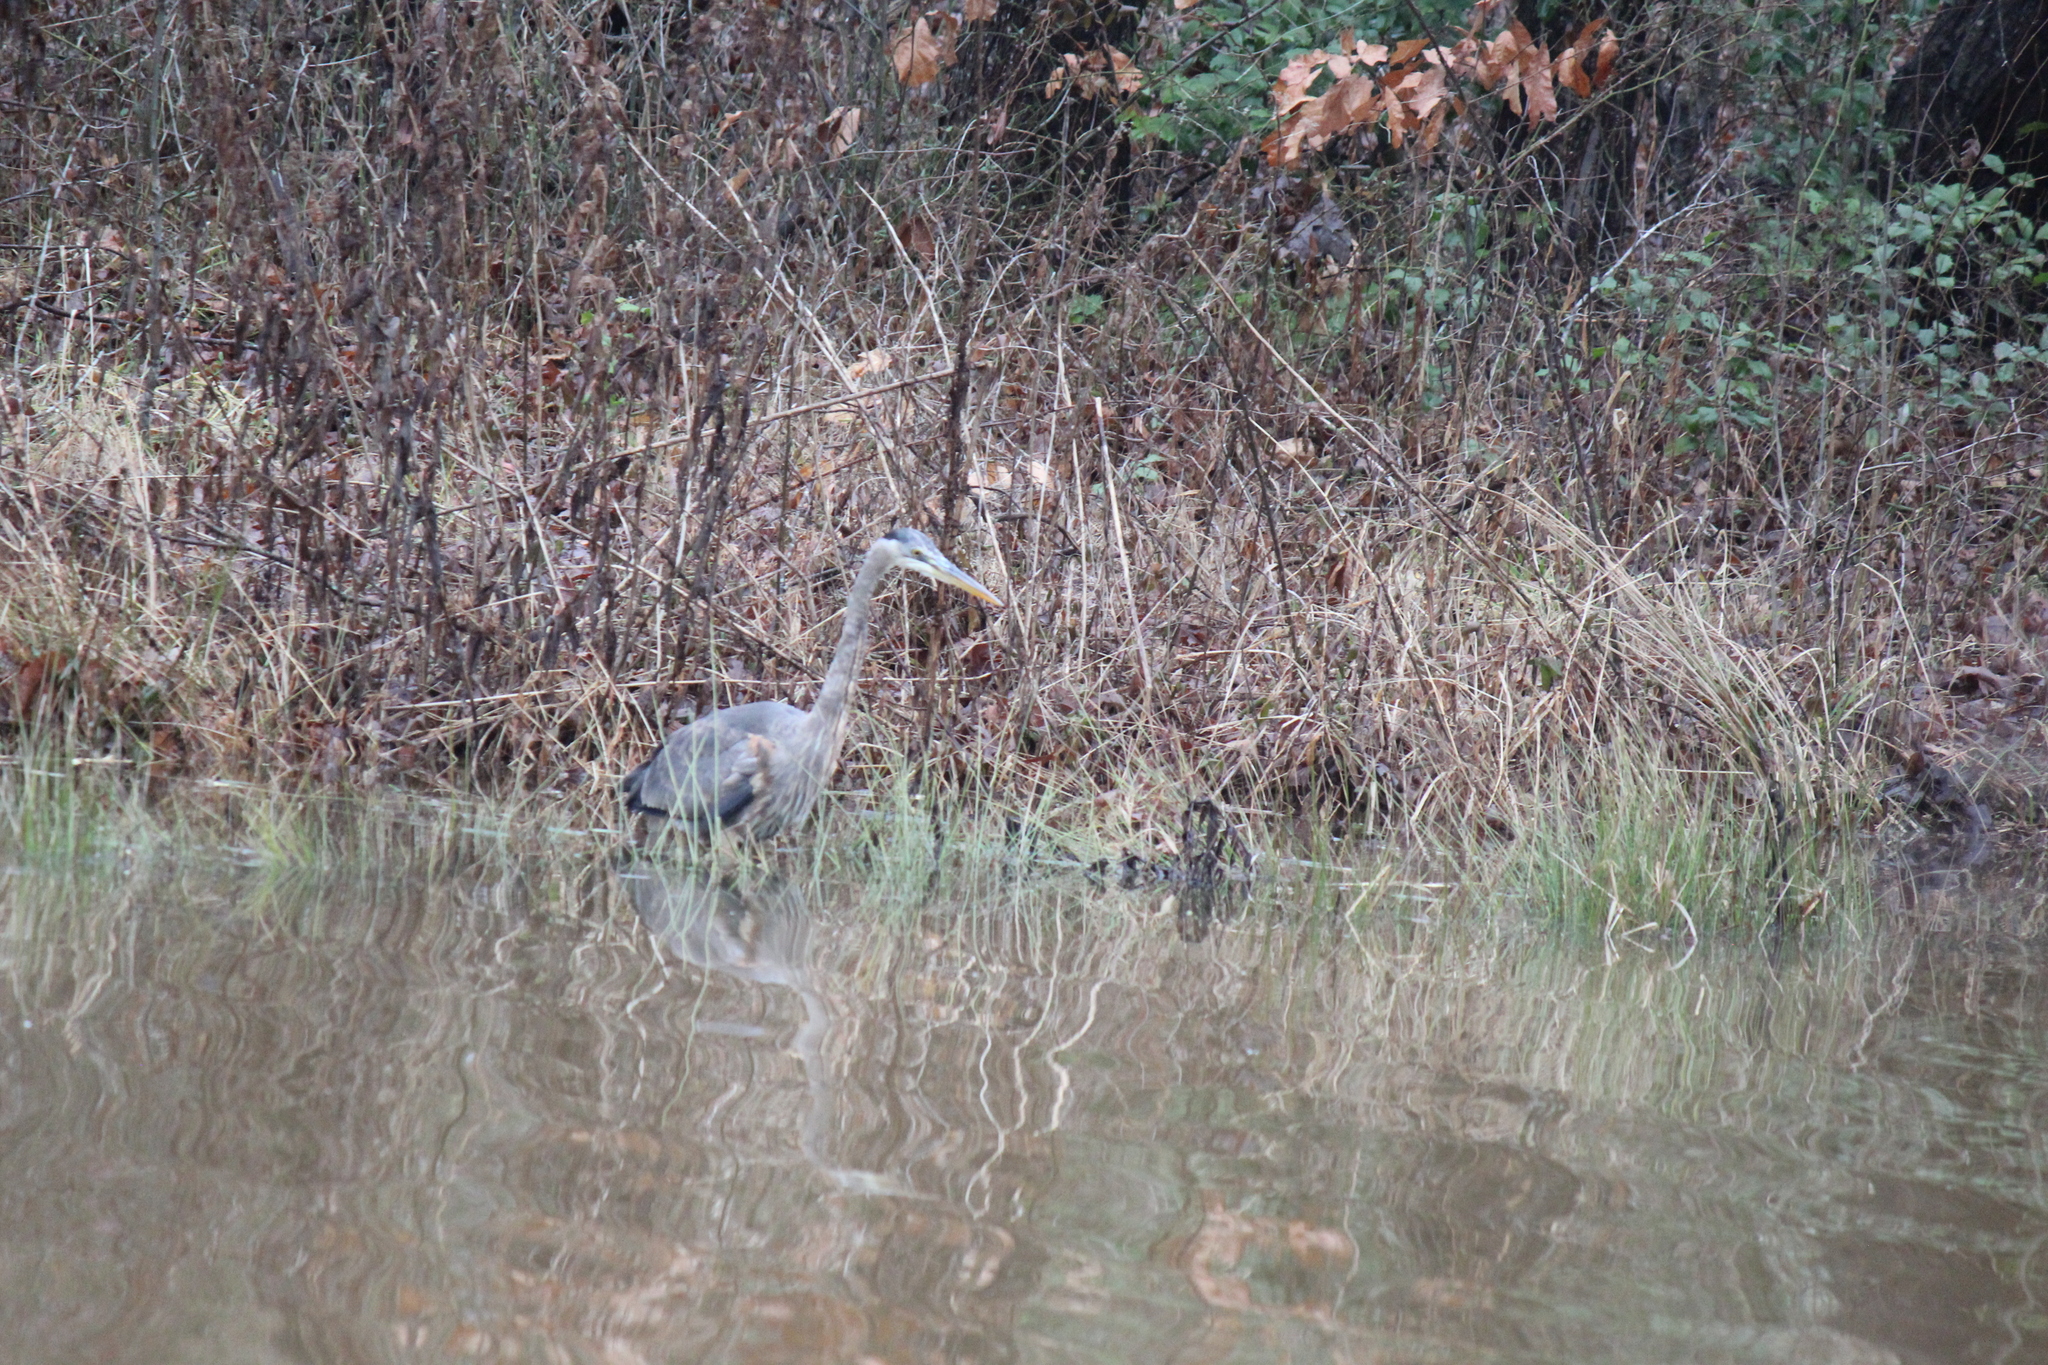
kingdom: Animalia
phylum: Chordata
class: Aves
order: Pelecaniformes
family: Ardeidae
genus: Ardea
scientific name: Ardea herodias
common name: Great blue heron
